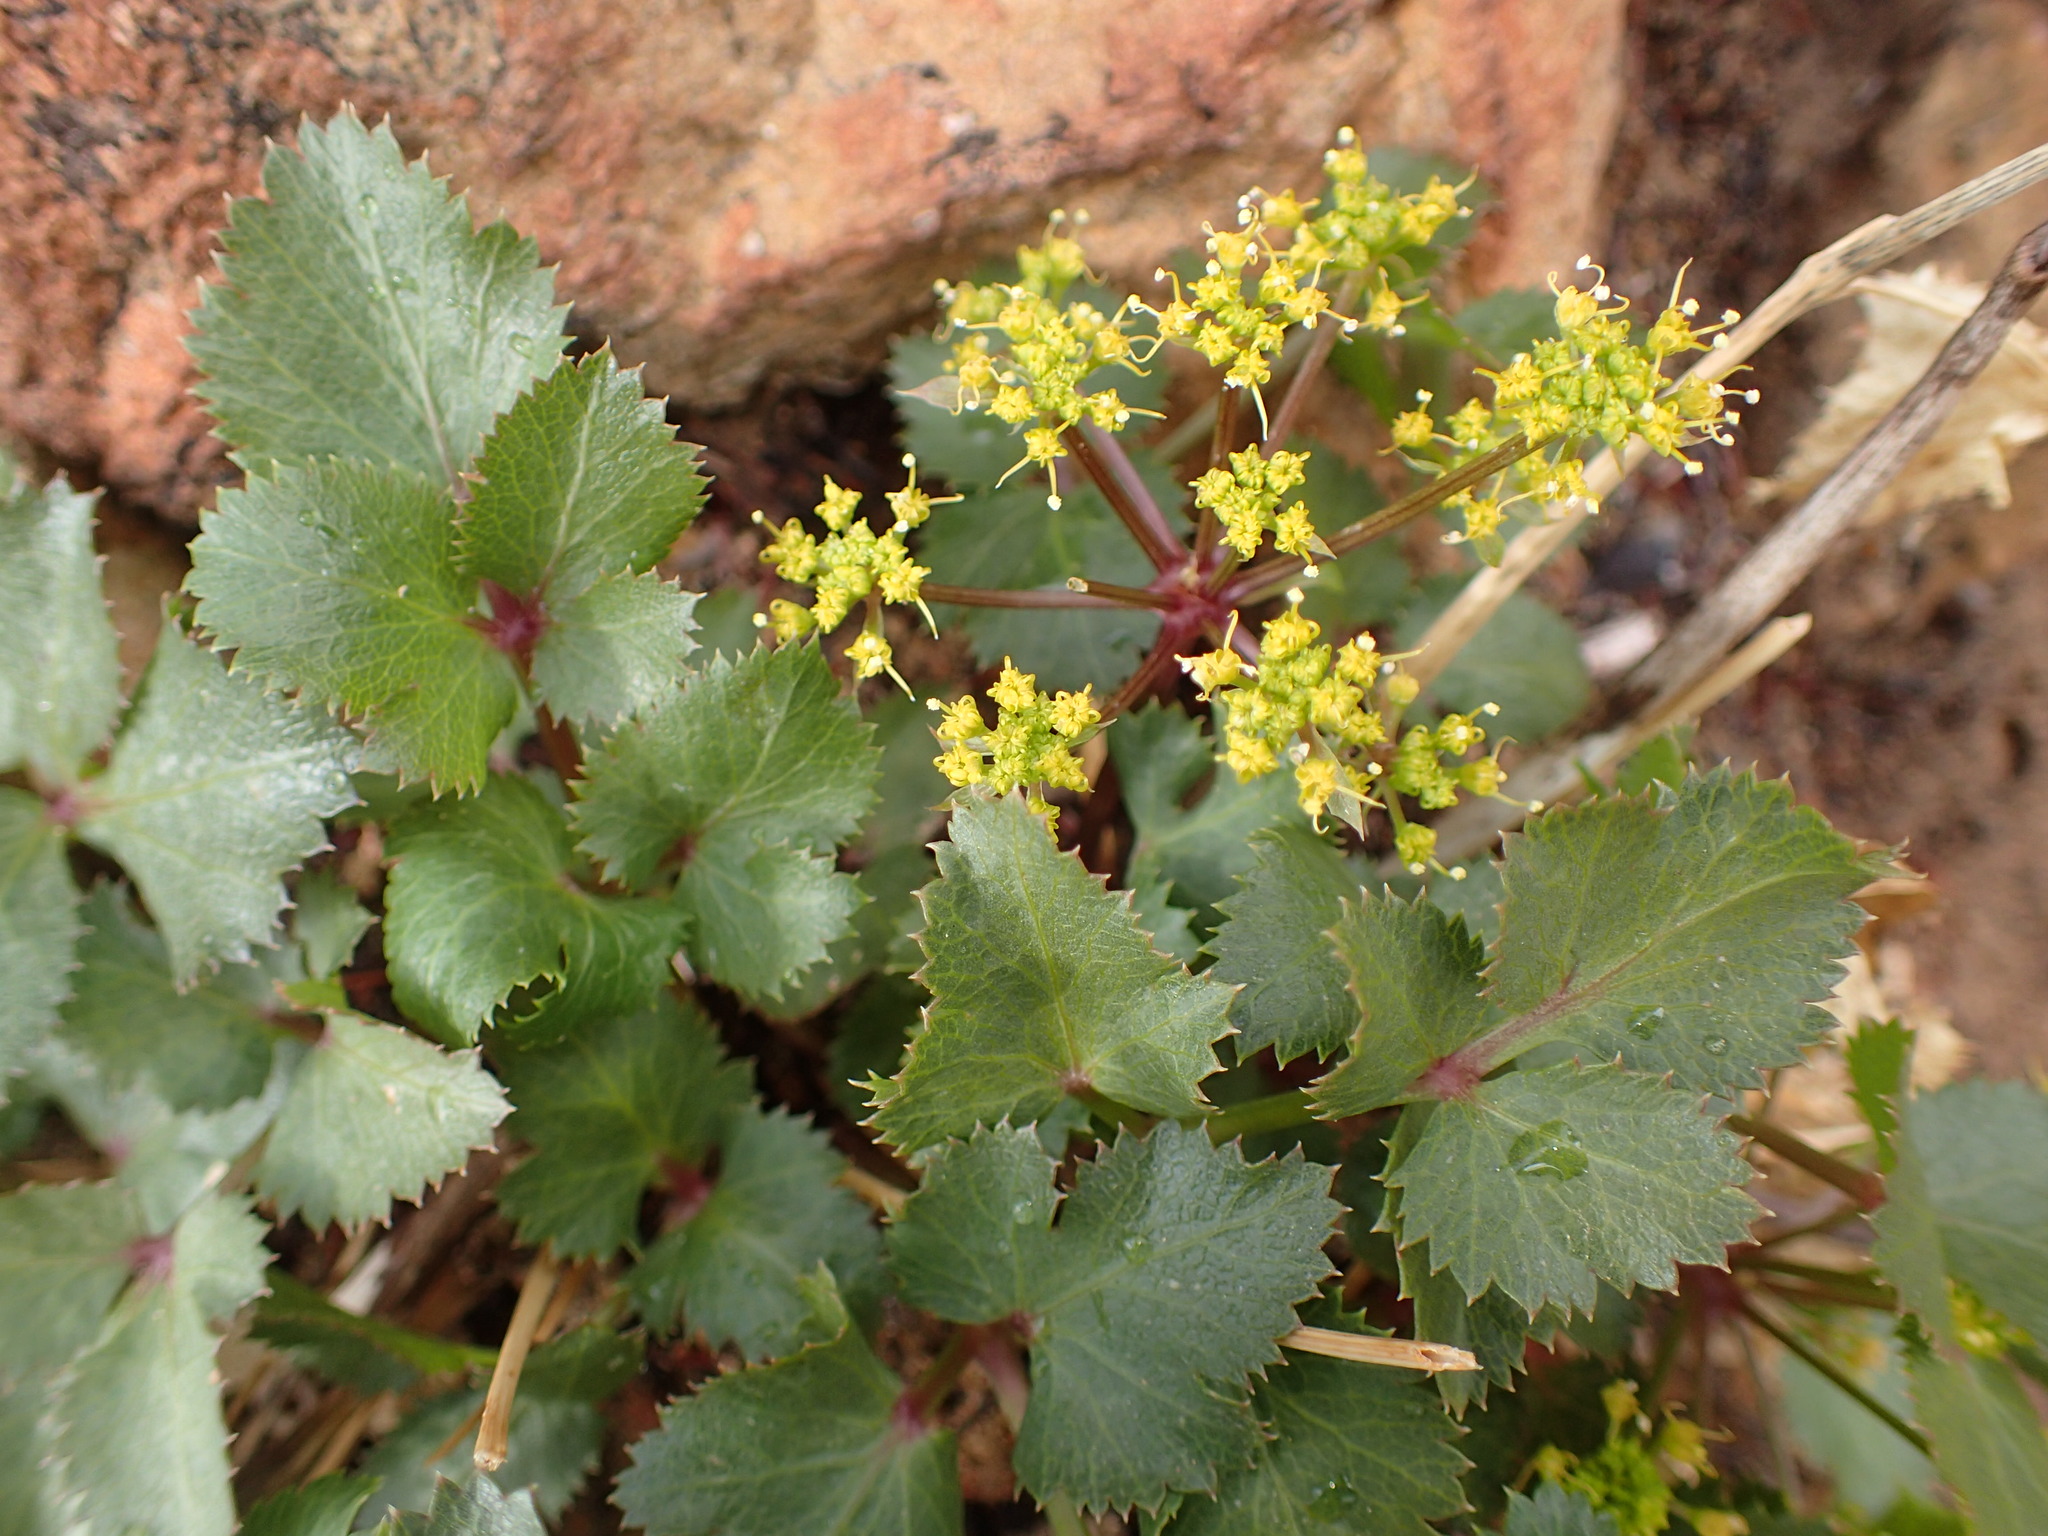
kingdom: Plantae
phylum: Tracheophyta
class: Magnoliopsida
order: Apiales
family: Apiaceae
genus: Tauschia
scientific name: Tauschia arguta
